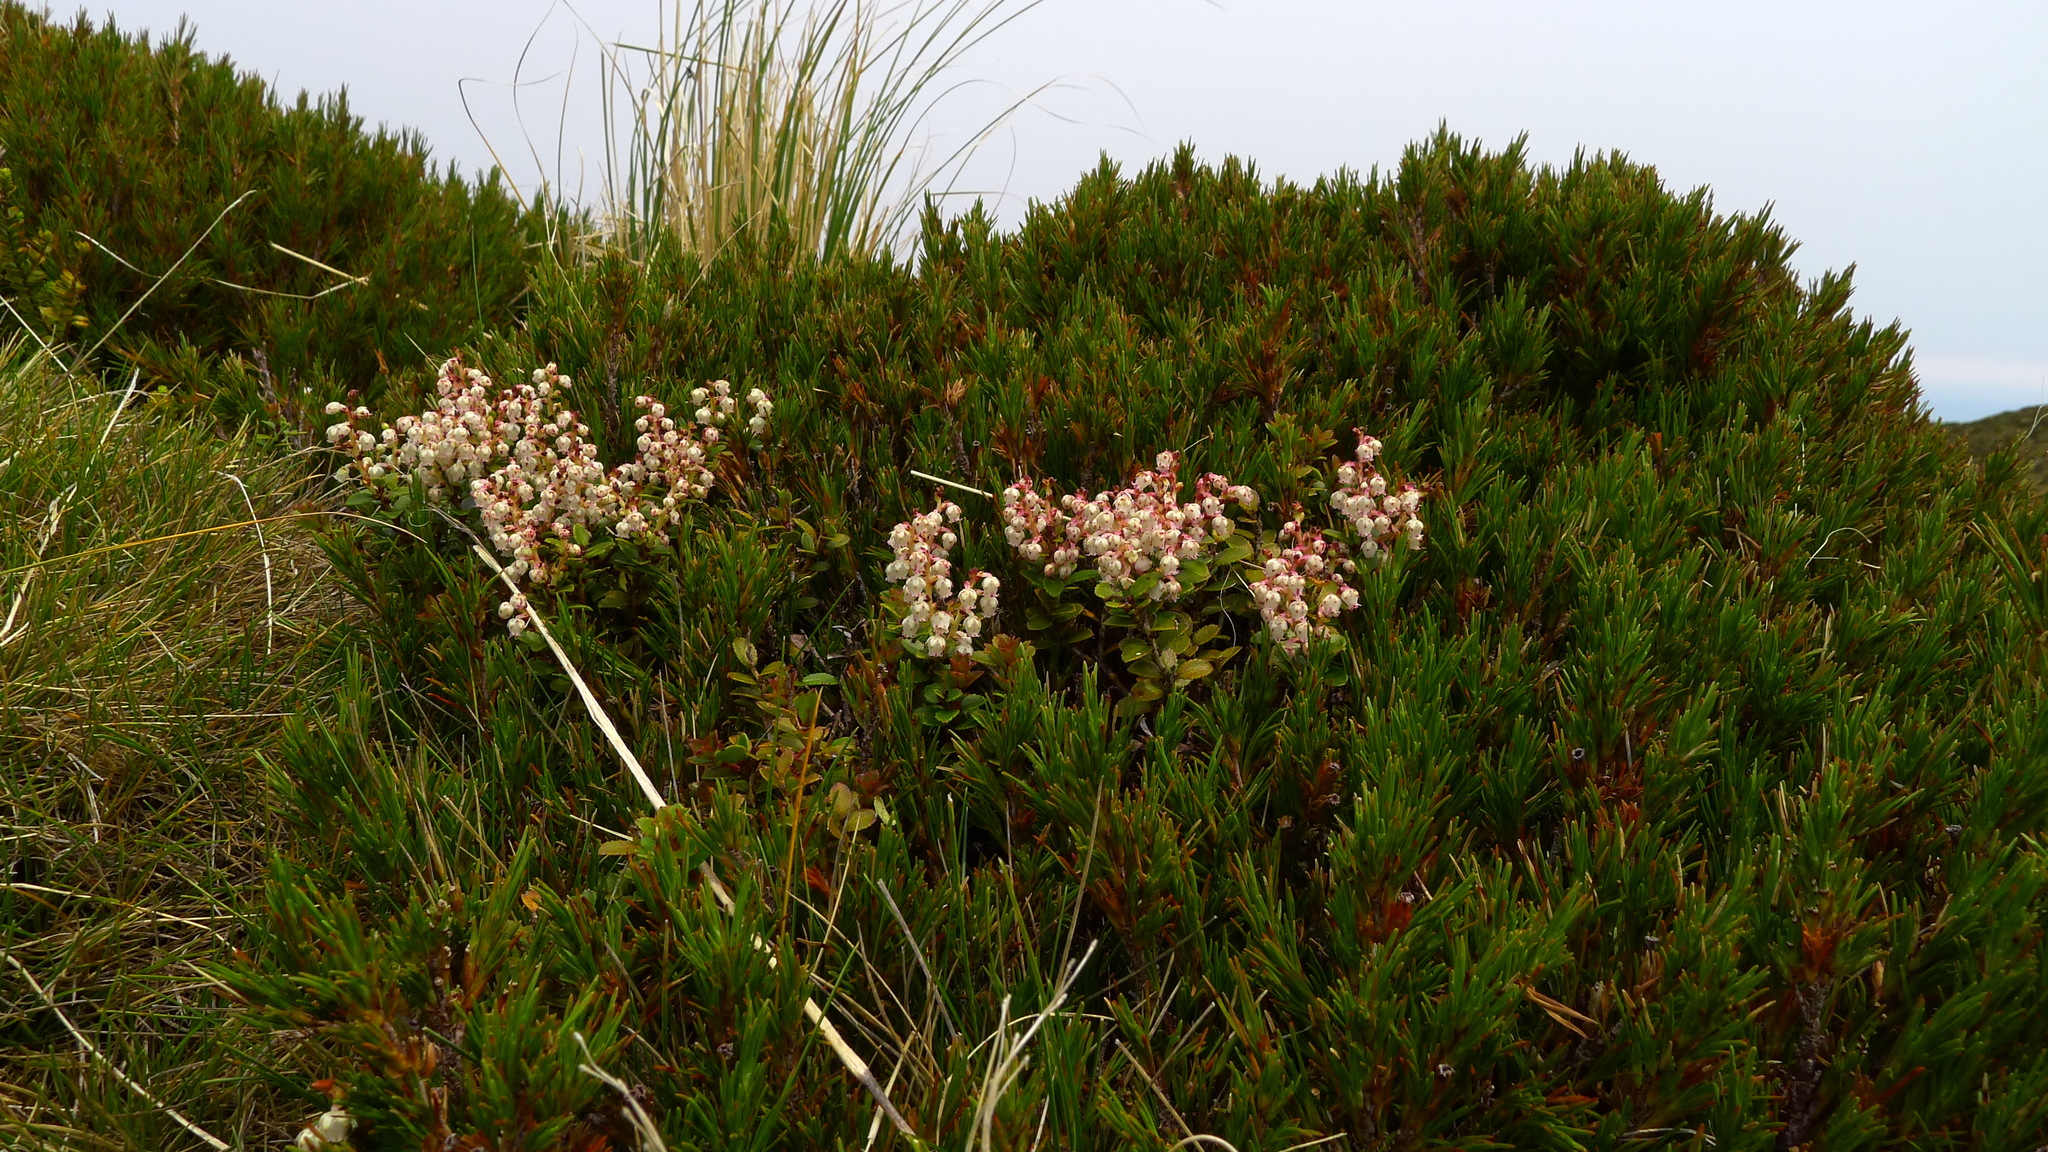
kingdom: Plantae
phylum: Tracheophyta
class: Magnoliopsida
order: Ericales
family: Ericaceae
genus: Gaultheria
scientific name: Gaultheria crassa
